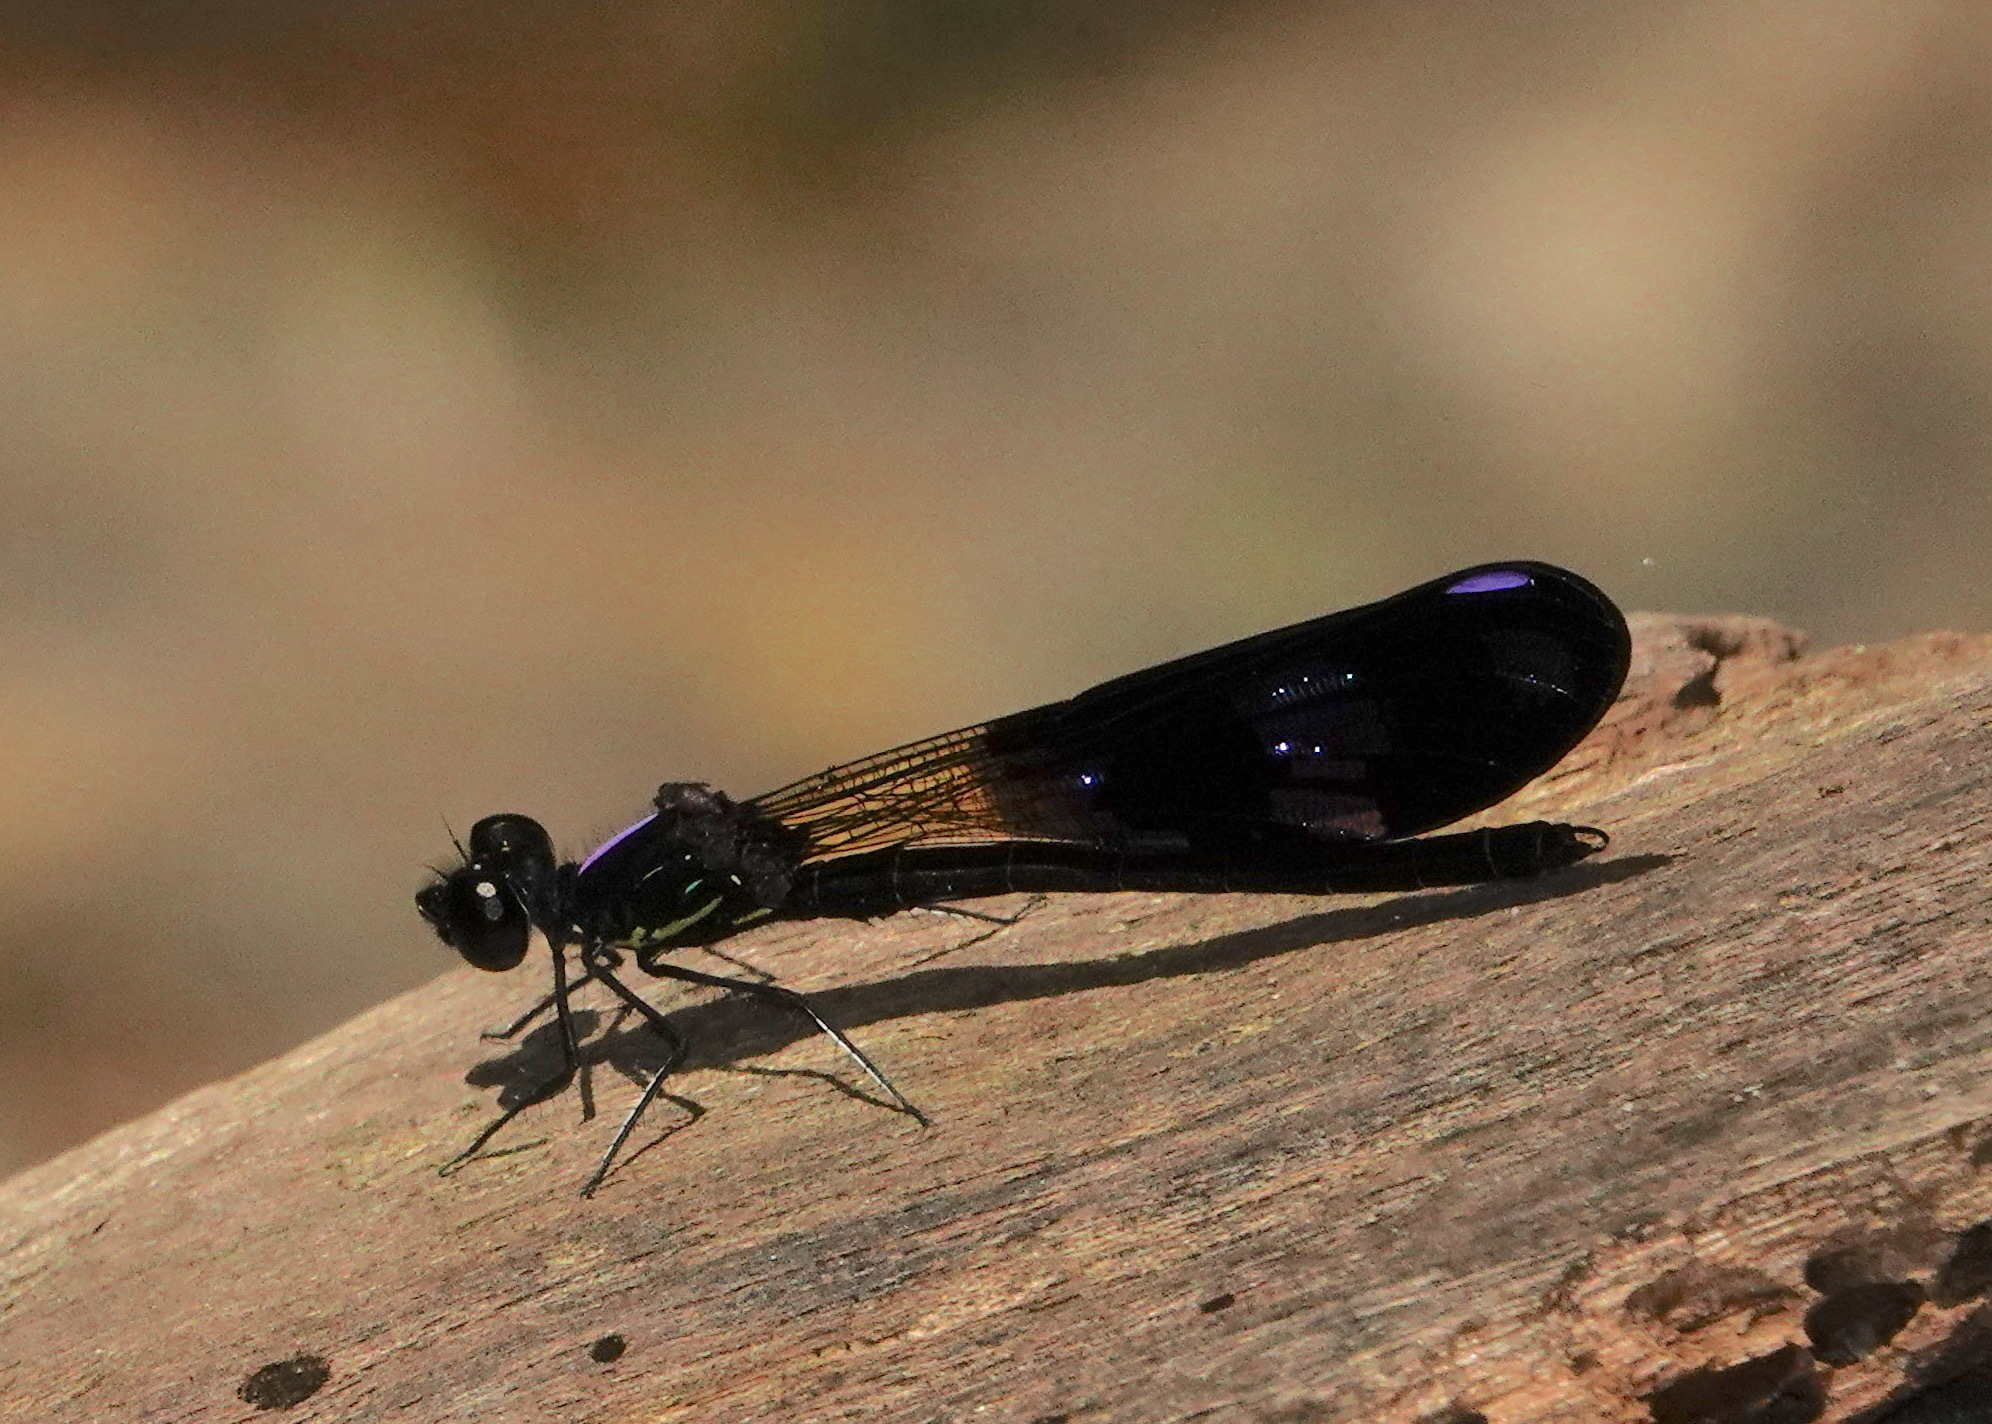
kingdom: Animalia
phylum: Arthropoda
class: Insecta
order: Odonata
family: Chlorocyphidae
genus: Aristocypha
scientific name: Aristocypha fenestrella
